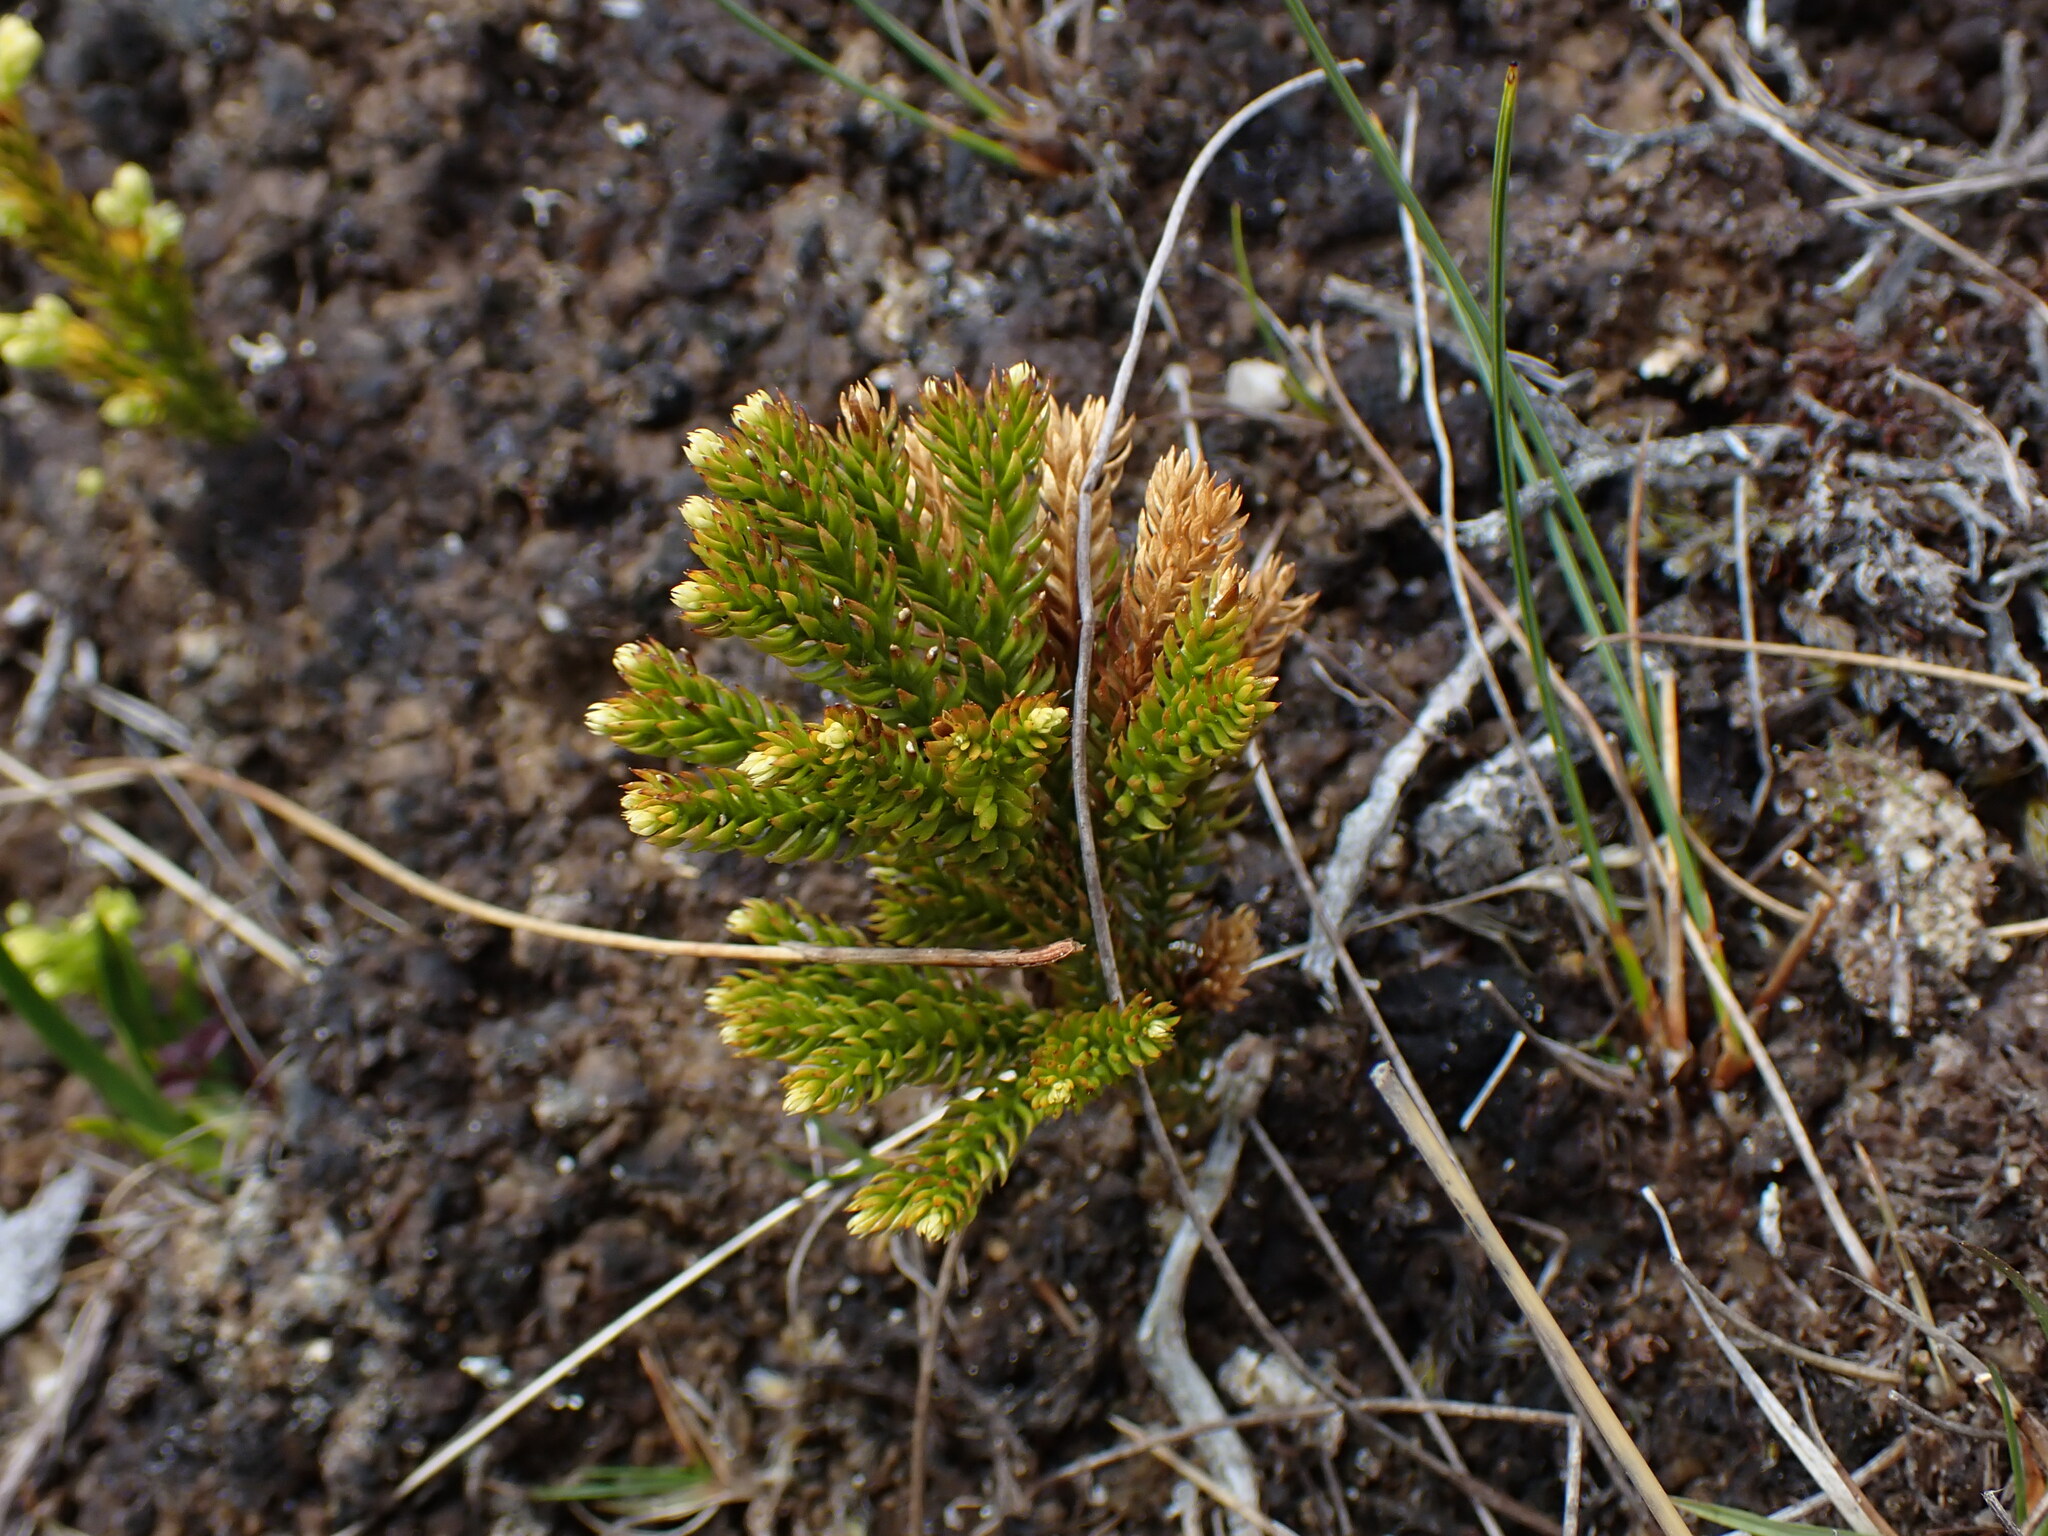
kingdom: Plantae
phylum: Tracheophyta
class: Lycopodiopsida
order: Lycopodiales
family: Lycopodiaceae
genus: Dendrolycopodium
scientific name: Dendrolycopodium dendroideum
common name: Northern tree-clubmoss
